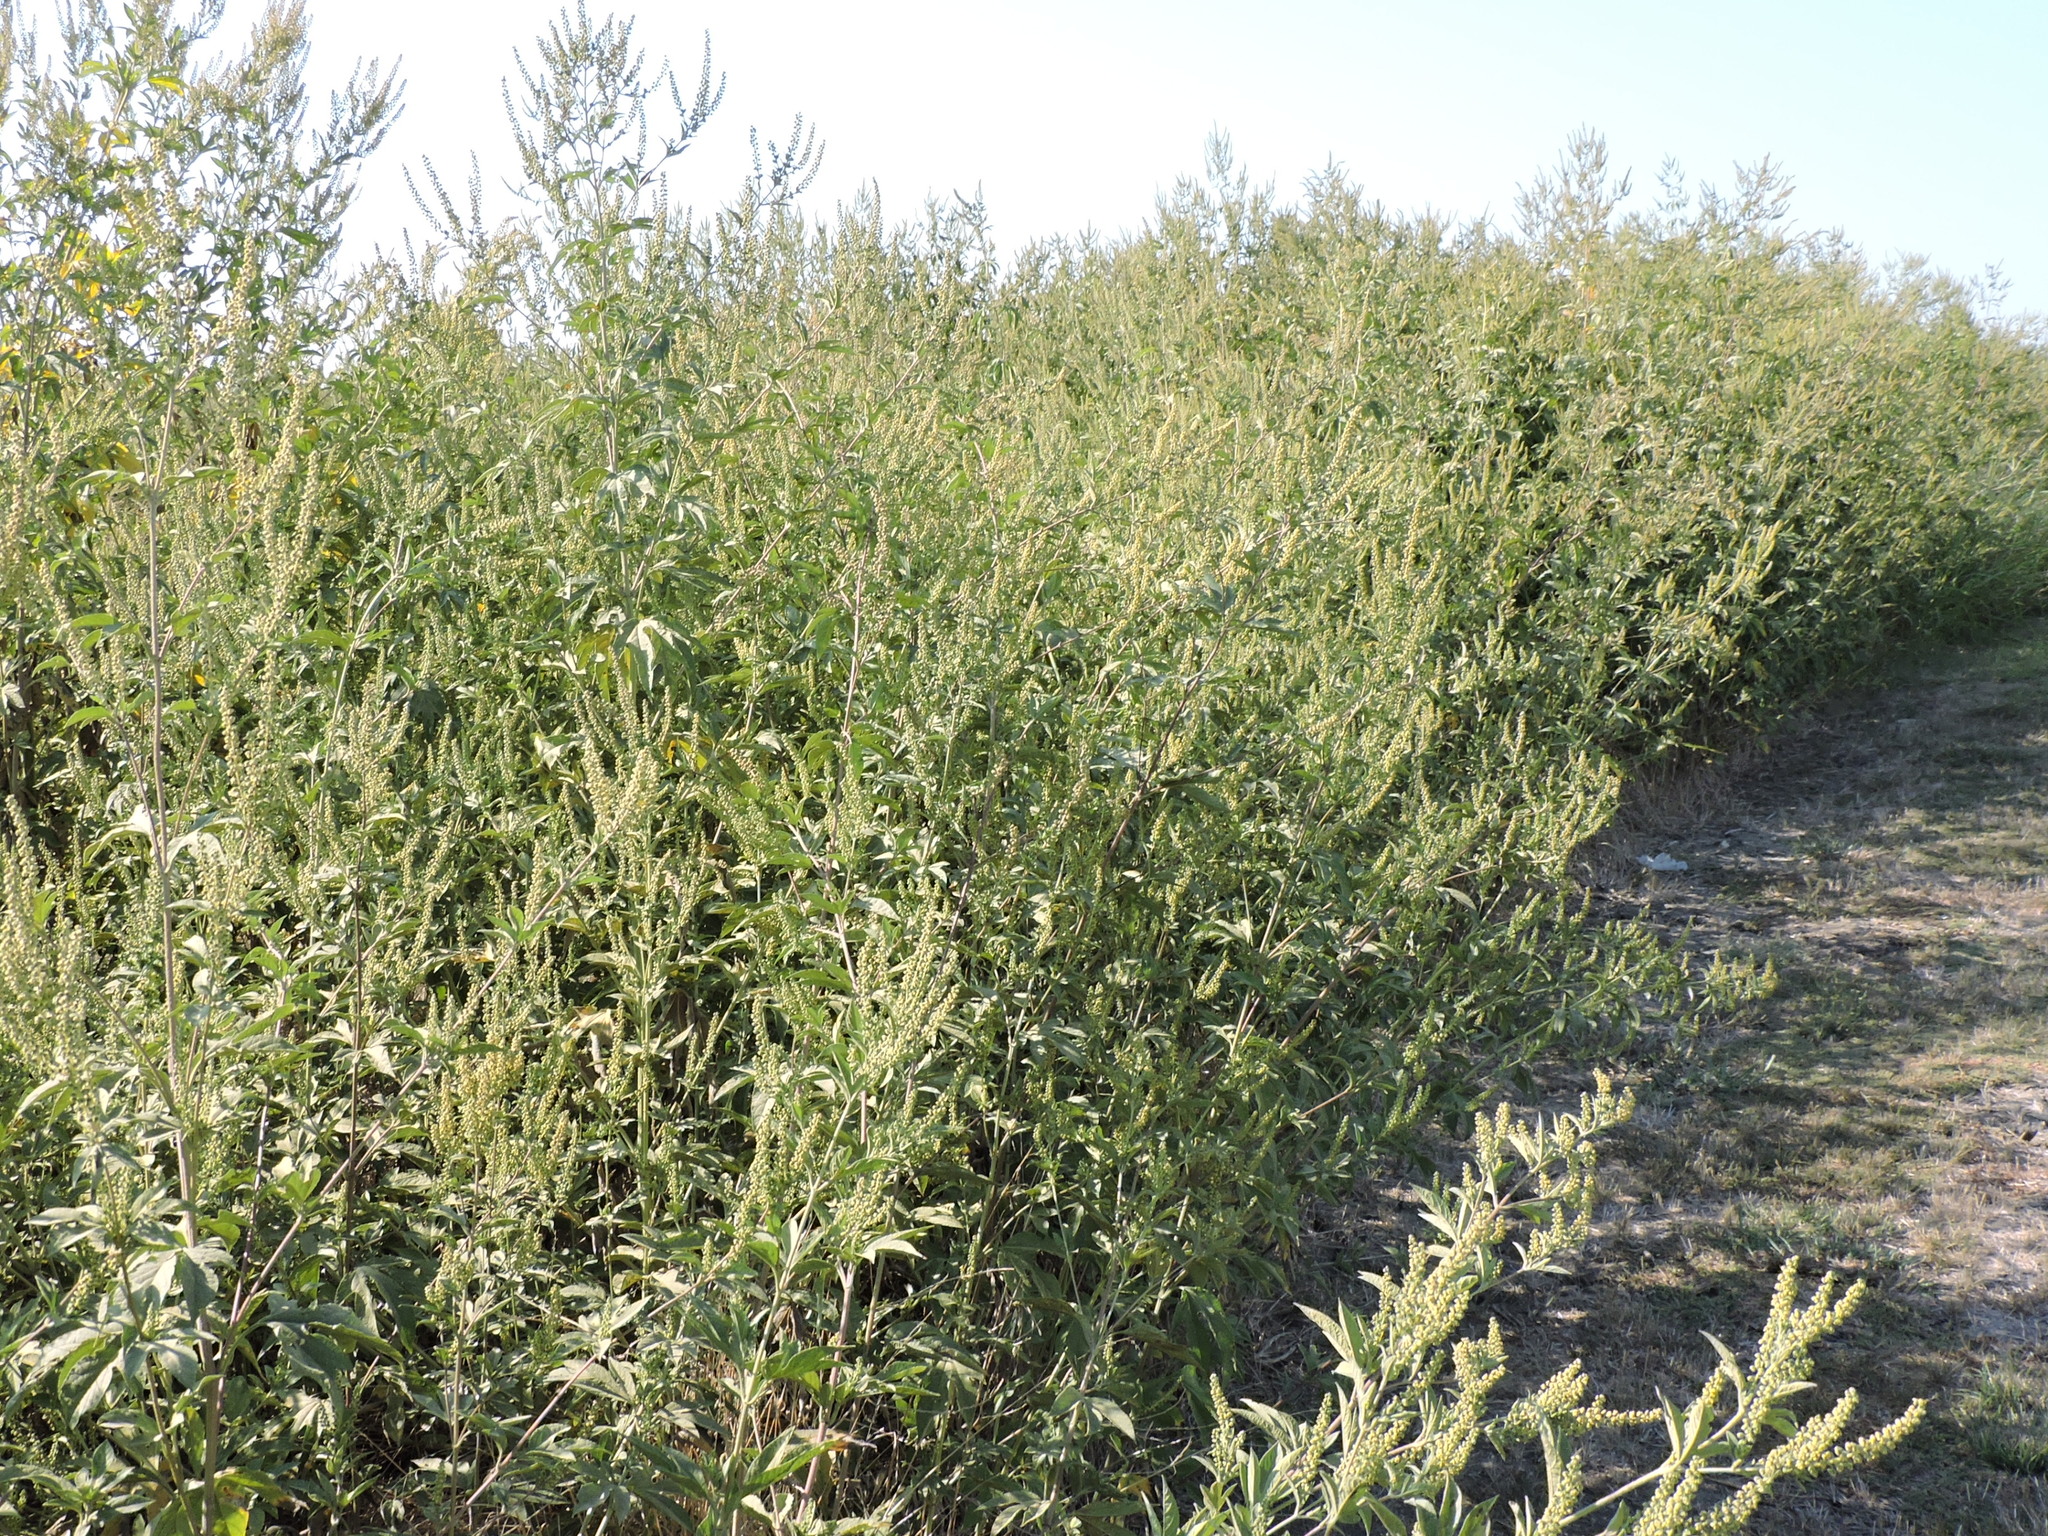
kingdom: Plantae
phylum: Tracheophyta
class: Magnoliopsida
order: Asterales
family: Asteraceae
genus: Ambrosia
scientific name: Ambrosia trifida
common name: Giant ragweed
